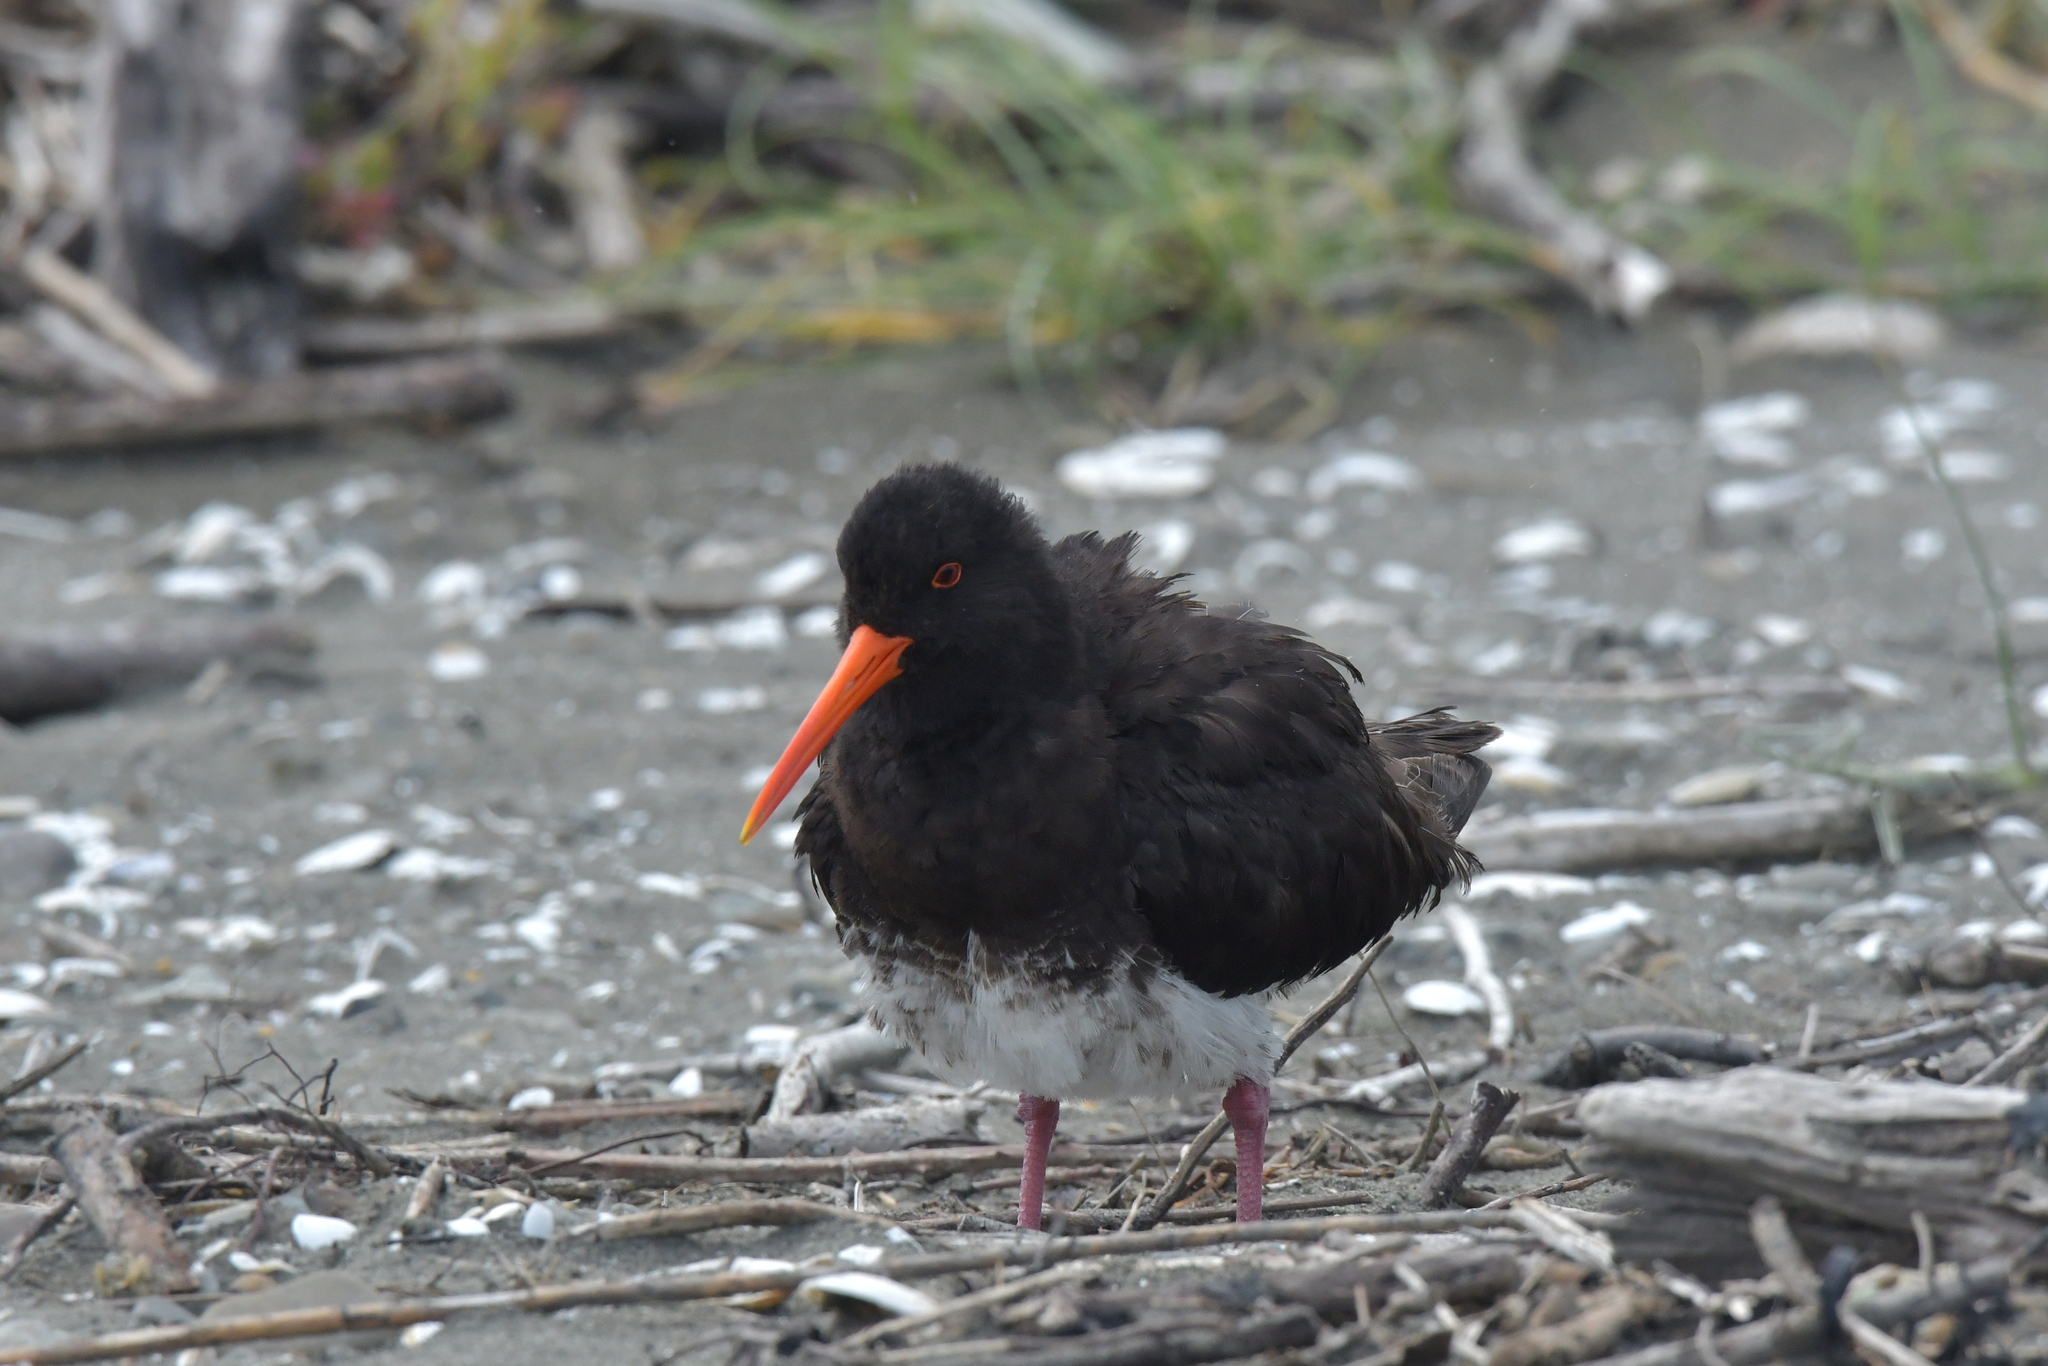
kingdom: Animalia
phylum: Chordata
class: Aves
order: Charadriiformes
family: Haematopodidae
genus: Haematopus
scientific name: Haematopus unicolor
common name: Variable oystercatcher
